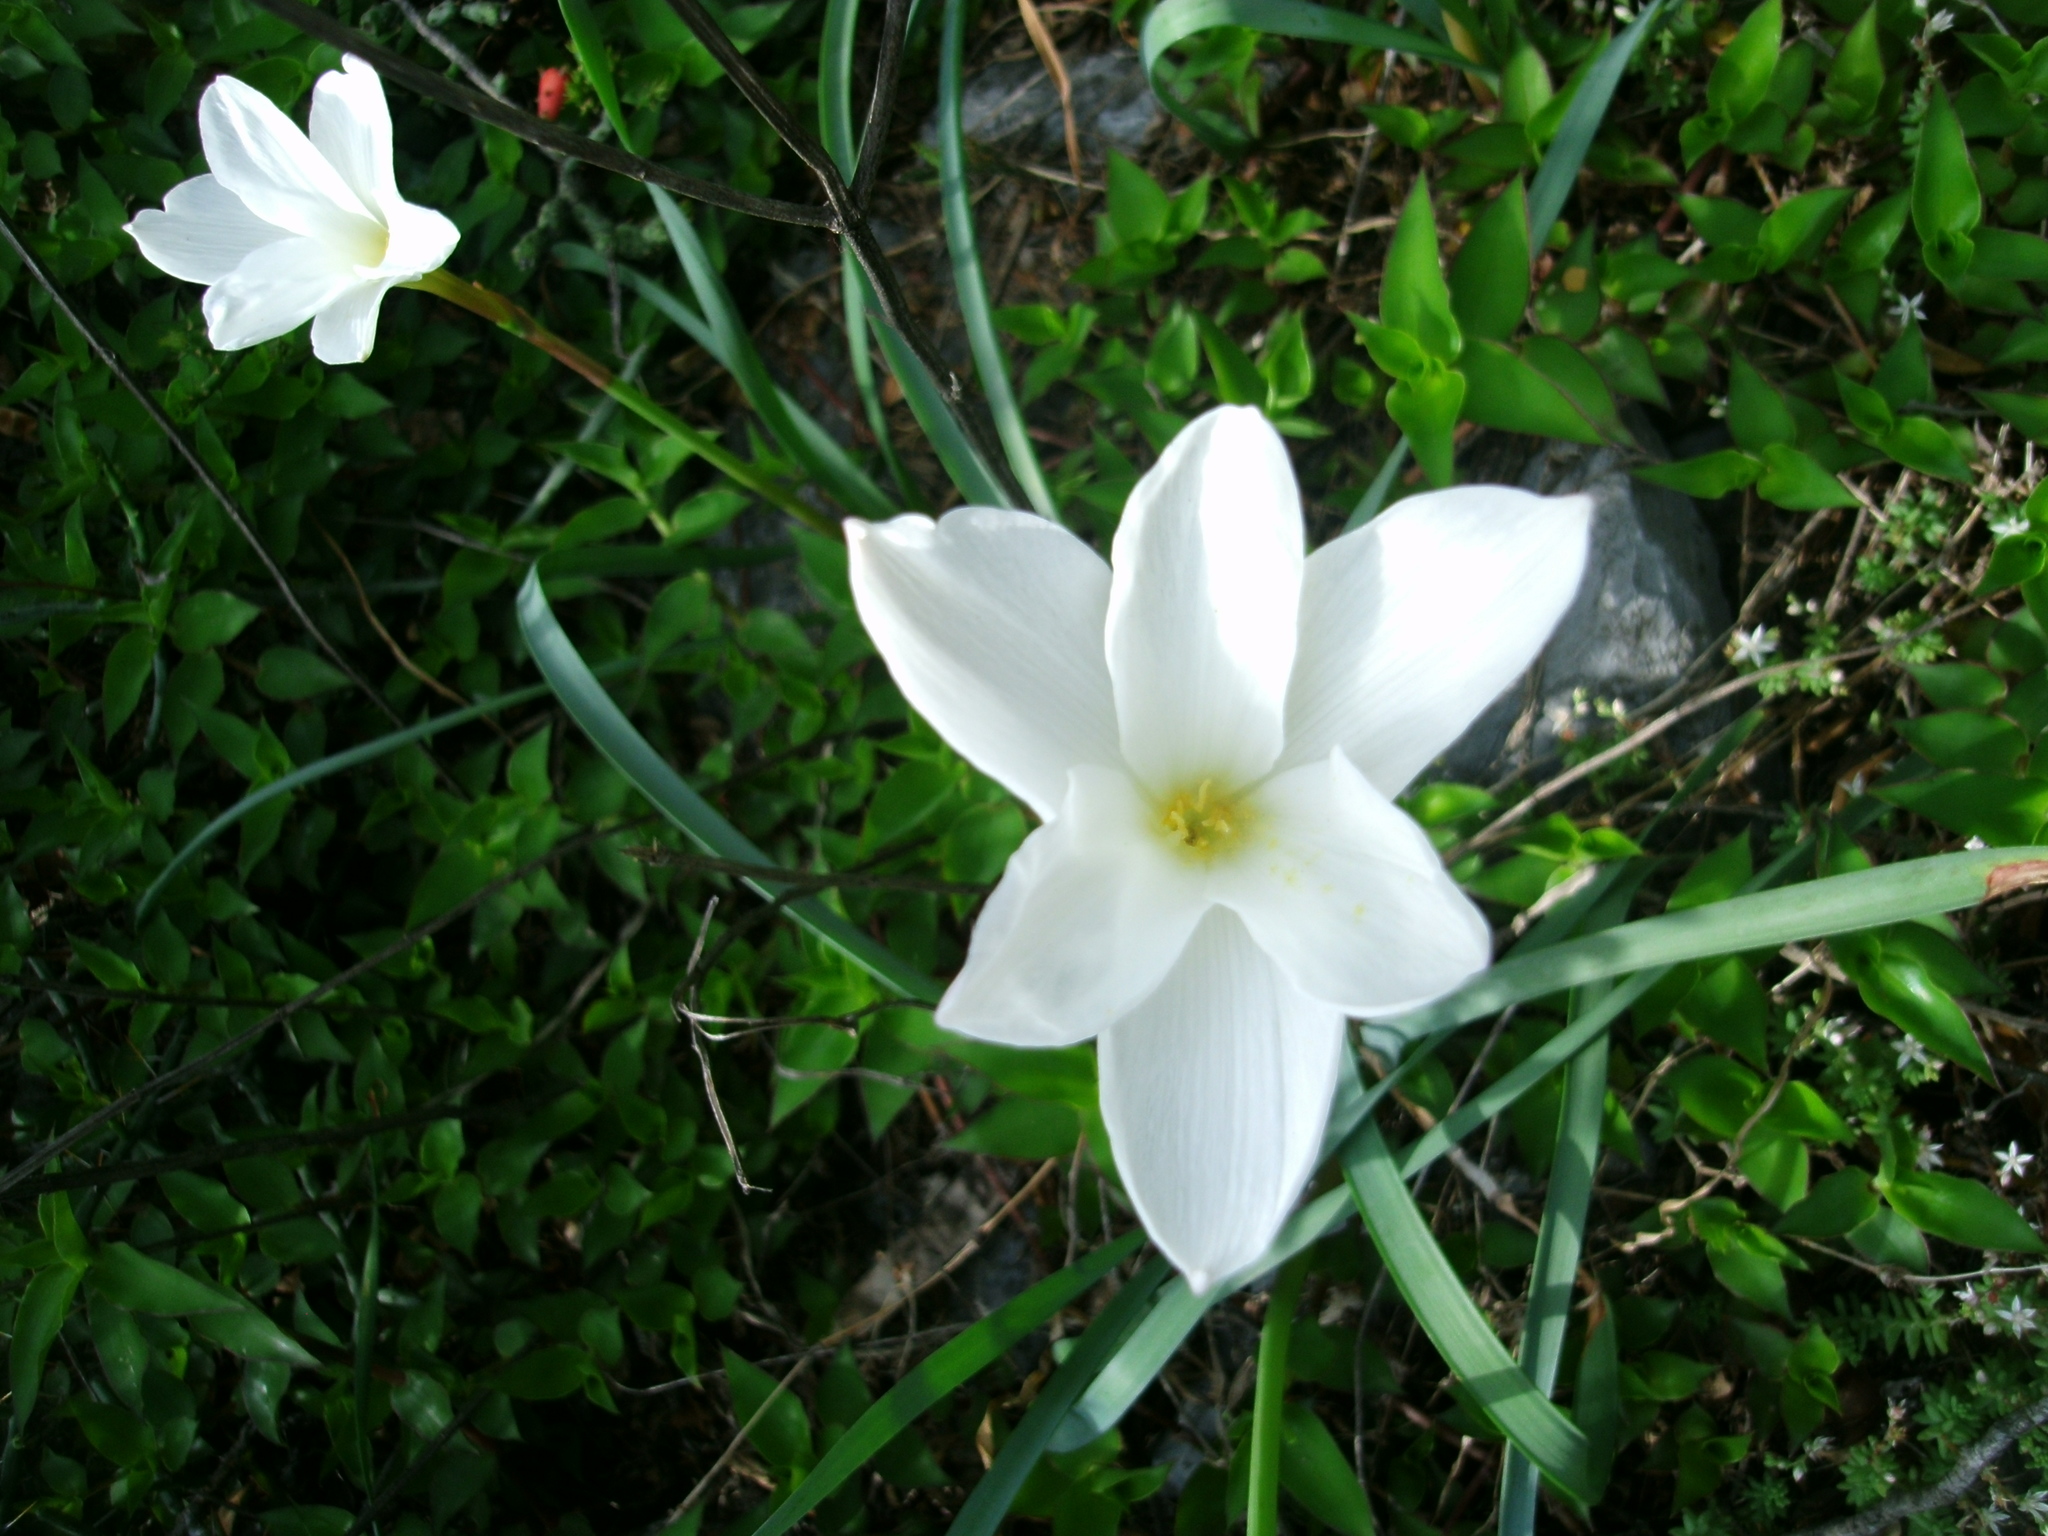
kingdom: Plantae
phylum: Tracheophyta
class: Liliopsida
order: Asparagales
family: Amaryllidaceae
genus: Zephyranthes
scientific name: Zephyranthes drummondii
